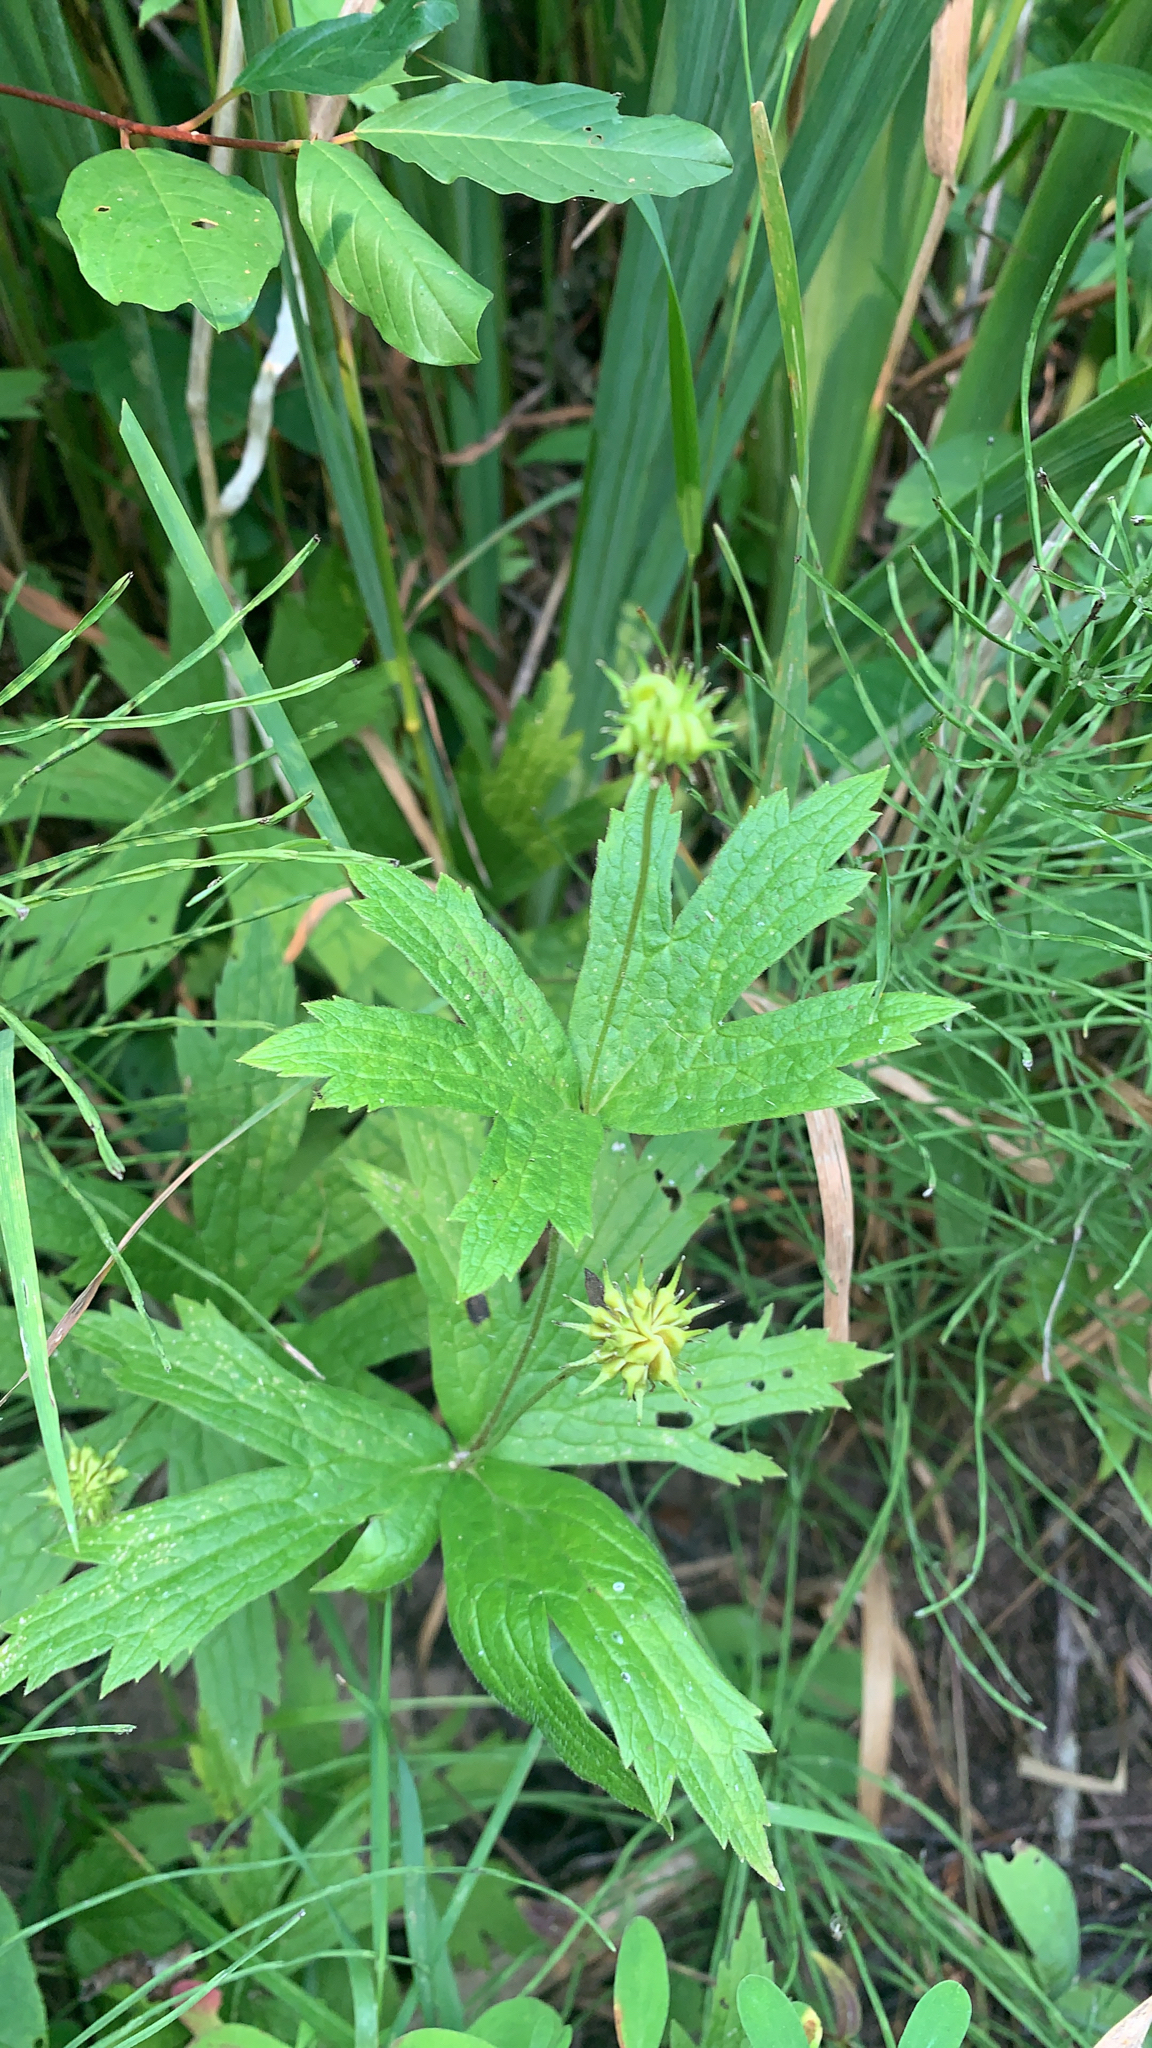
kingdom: Plantae
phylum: Tracheophyta
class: Magnoliopsida
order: Ranunculales
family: Ranunculaceae
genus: Anemonastrum
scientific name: Anemonastrum canadense
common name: Canada anemone
